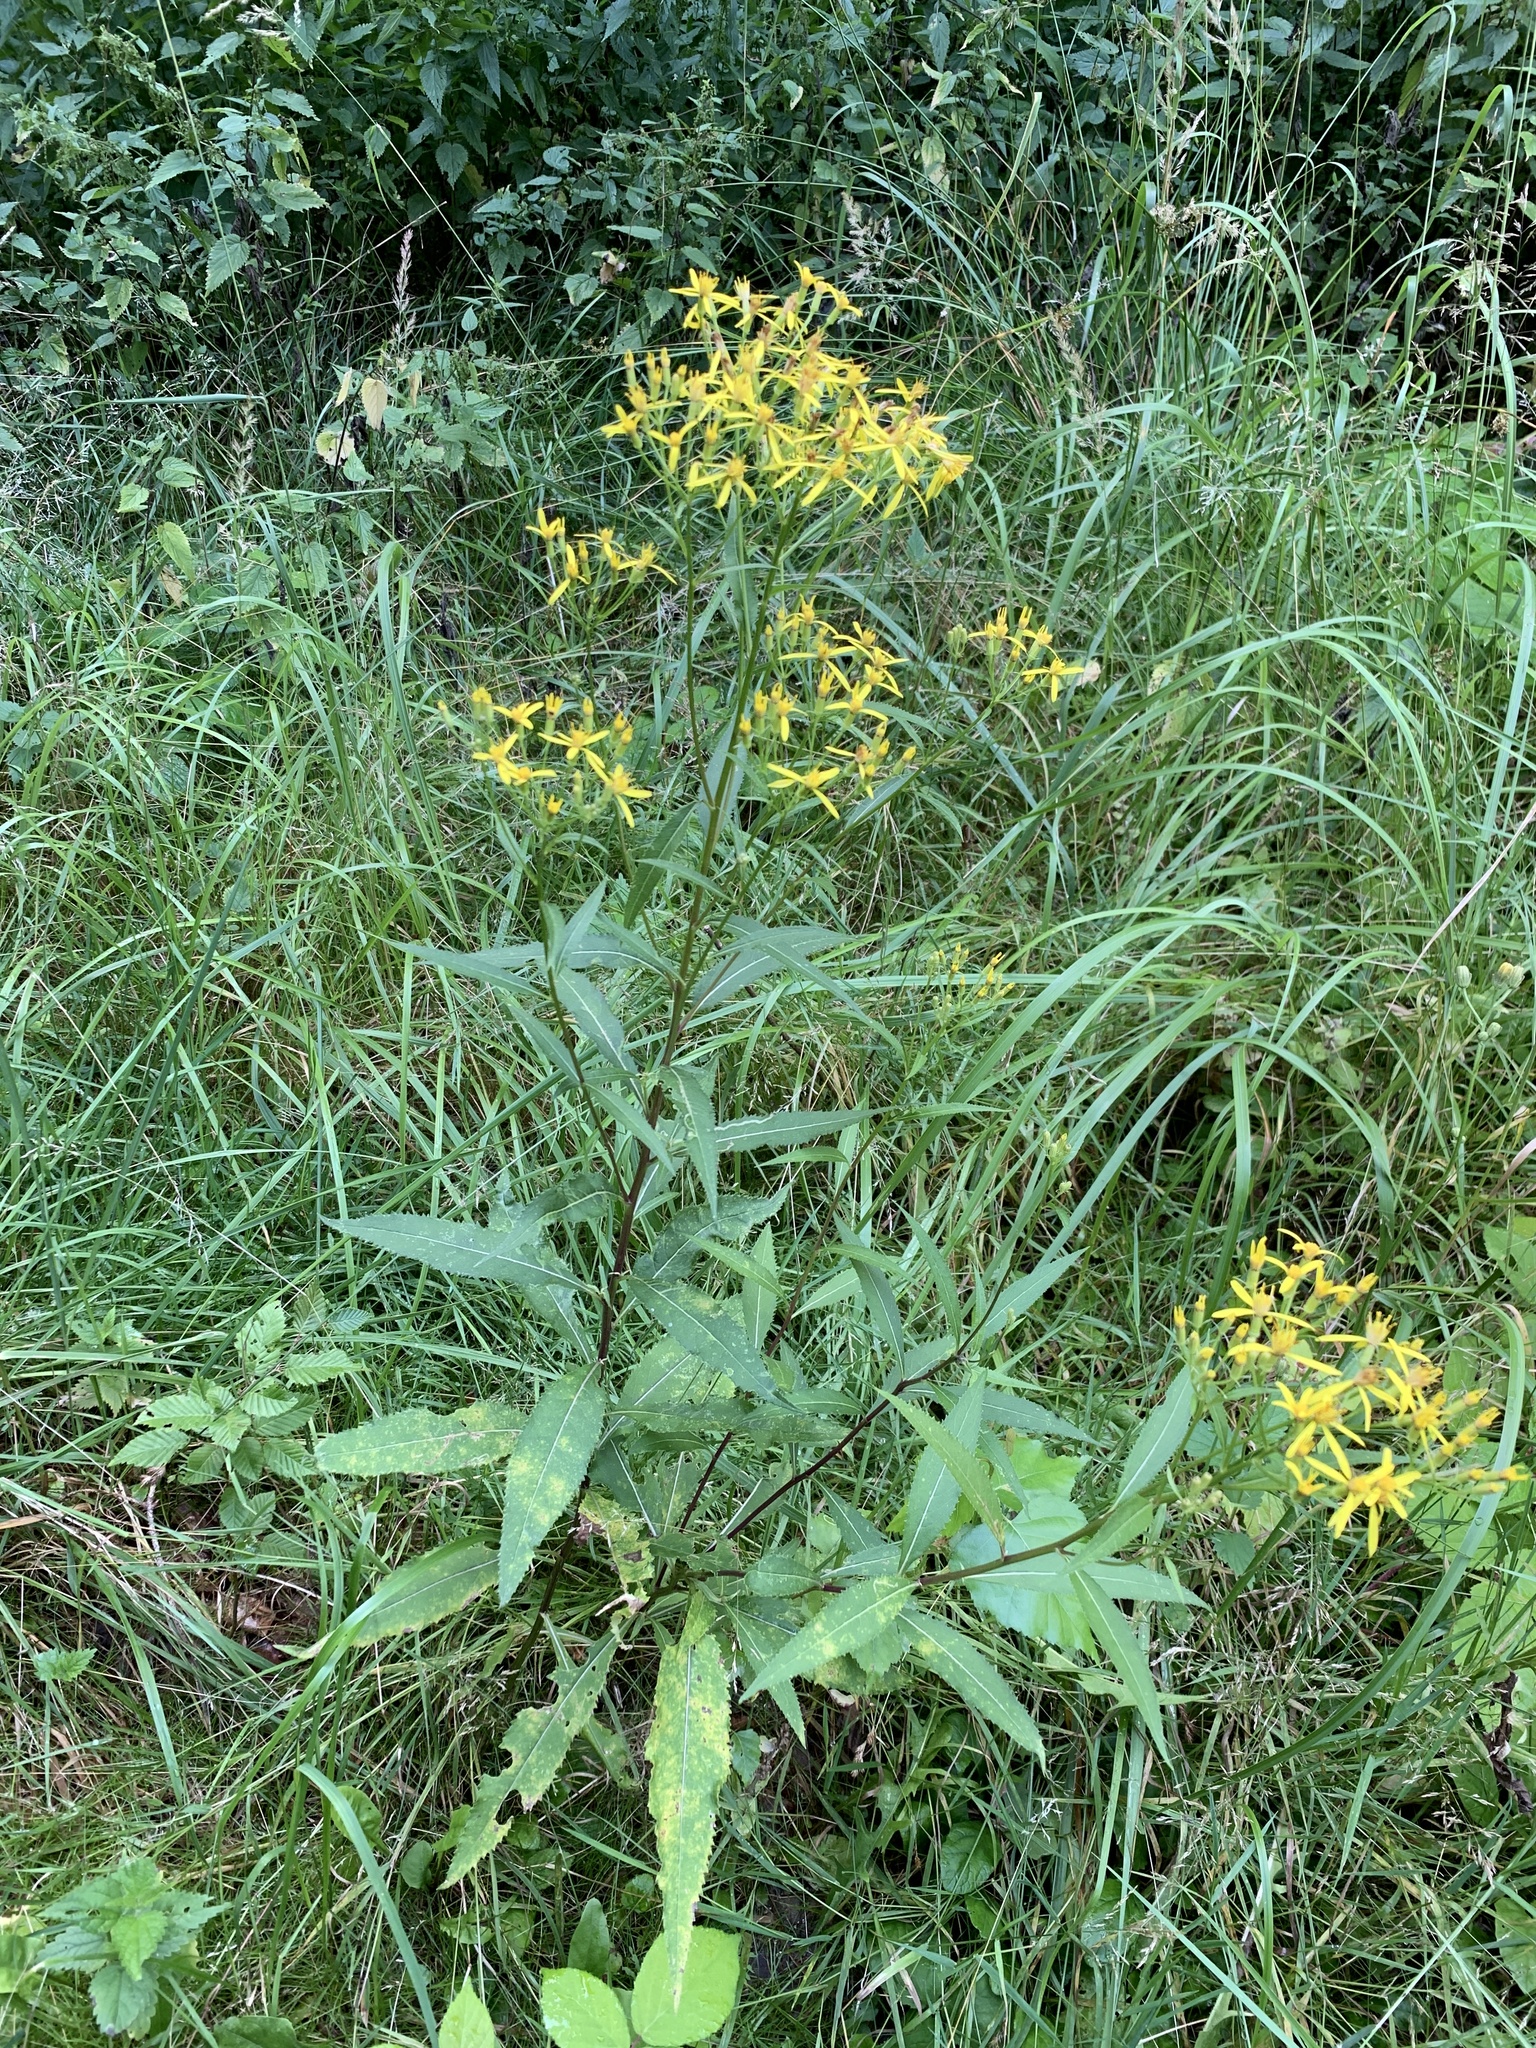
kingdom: Plantae
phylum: Tracheophyta
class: Magnoliopsida
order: Asterales
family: Asteraceae
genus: Senecio
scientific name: Senecio ovatus
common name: Wood ragwort
